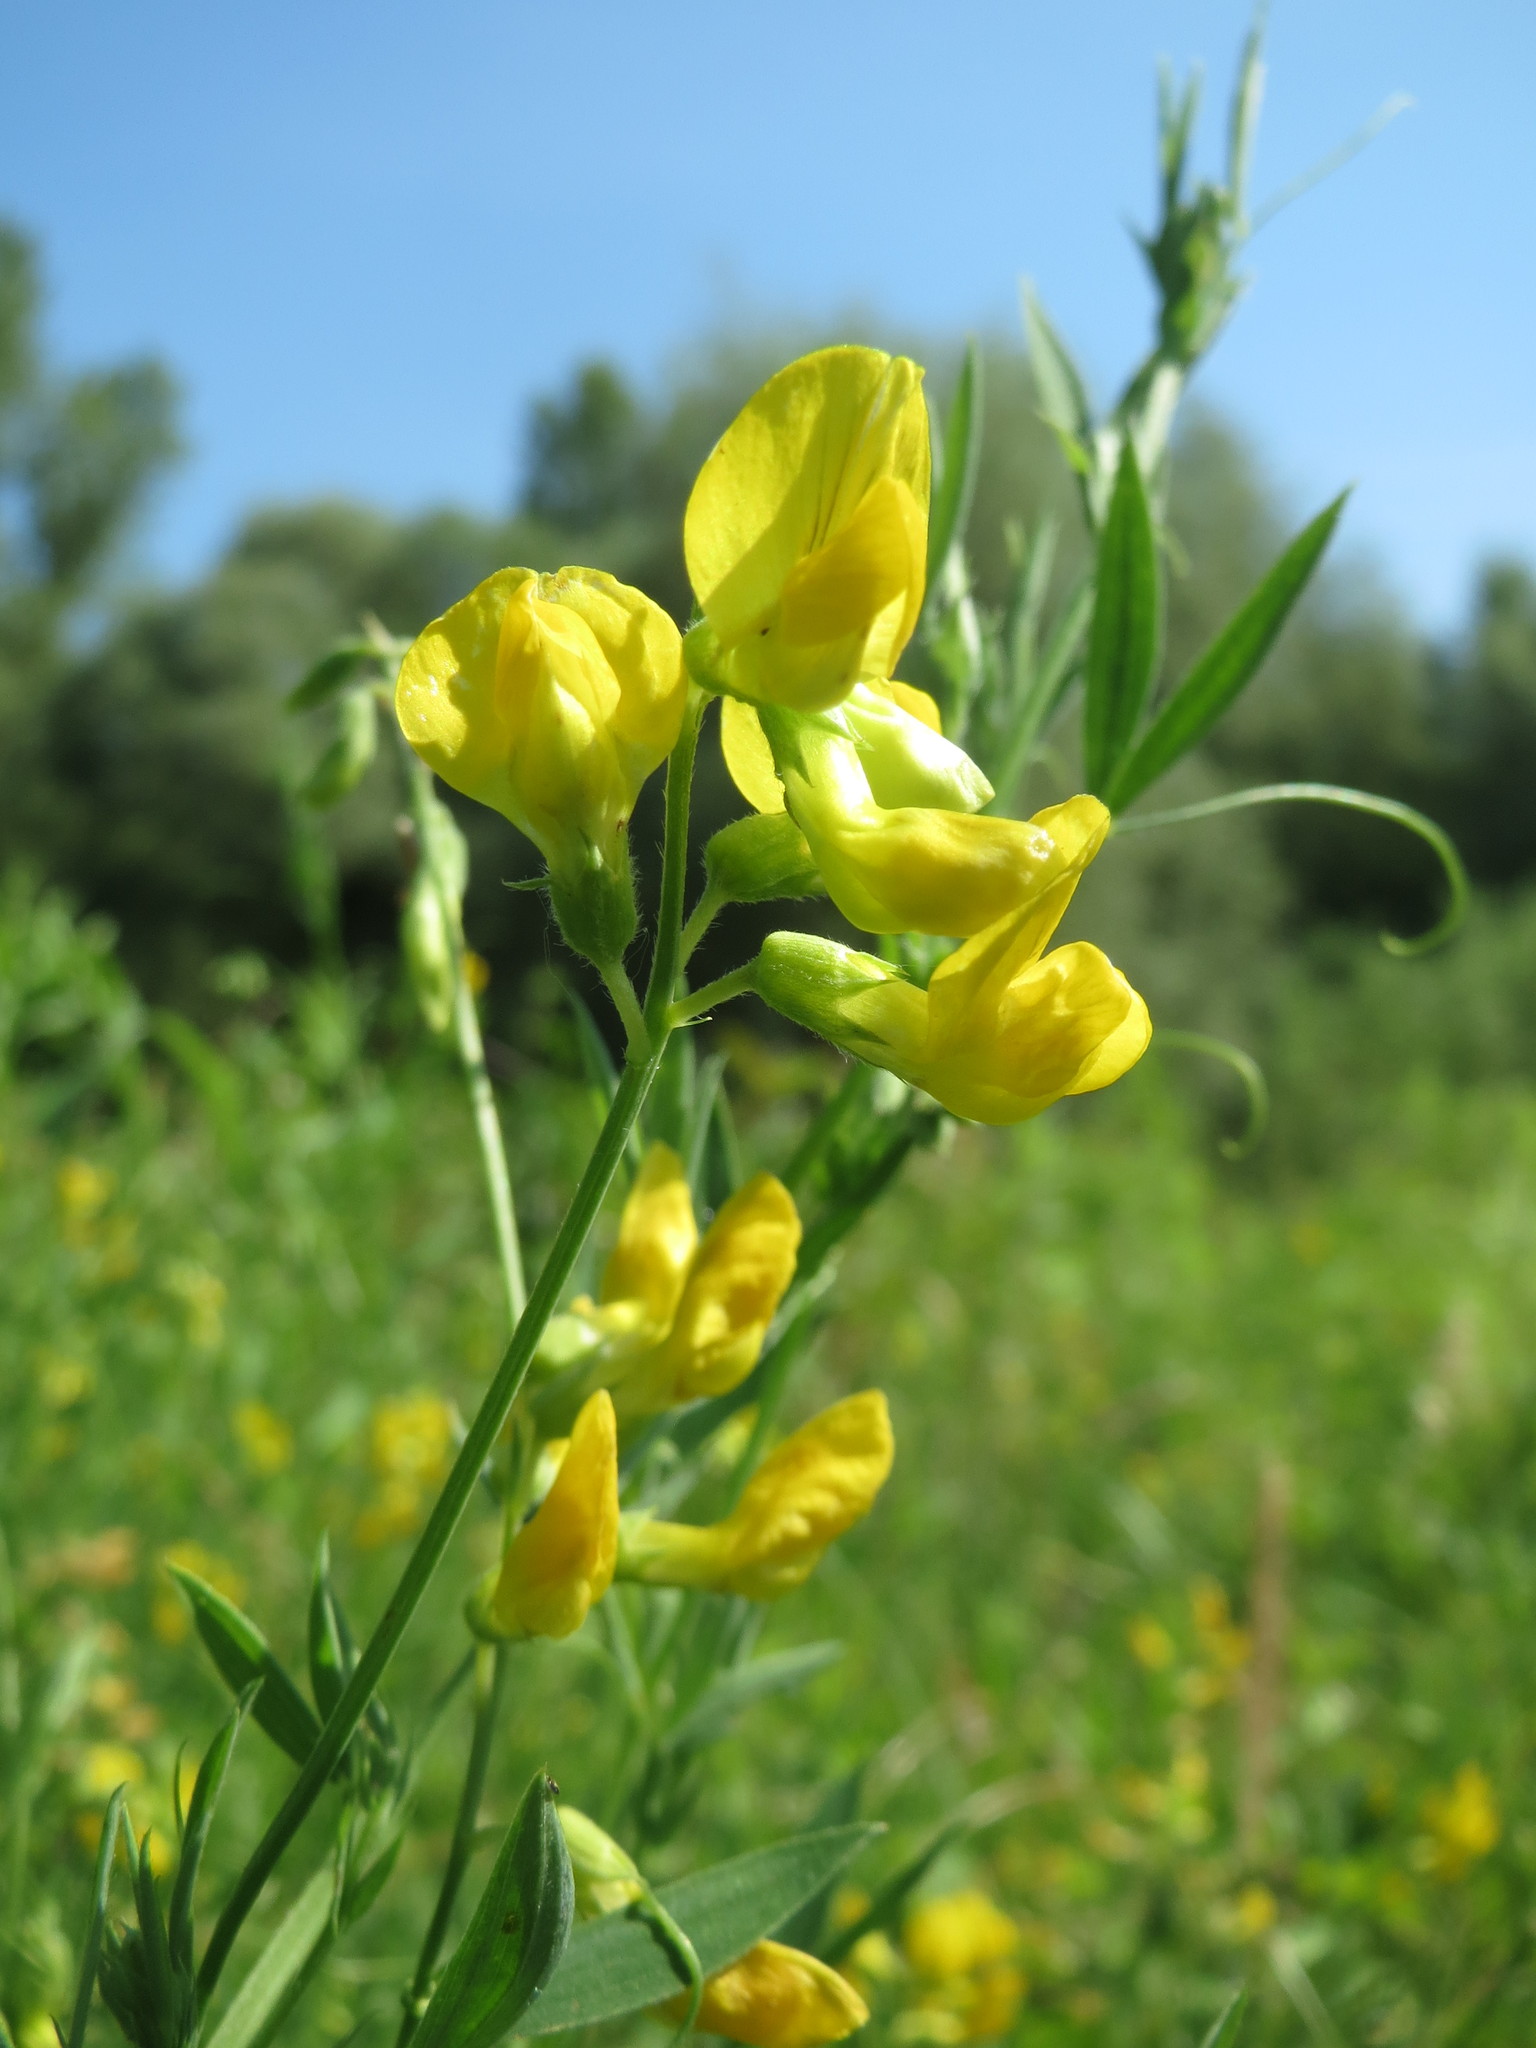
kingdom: Plantae
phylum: Tracheophyta
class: Magnoliopsida
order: Fabales
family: Fabaceae
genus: Lathyrus
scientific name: Lathyrus pratensis
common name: Meadow vetchling
